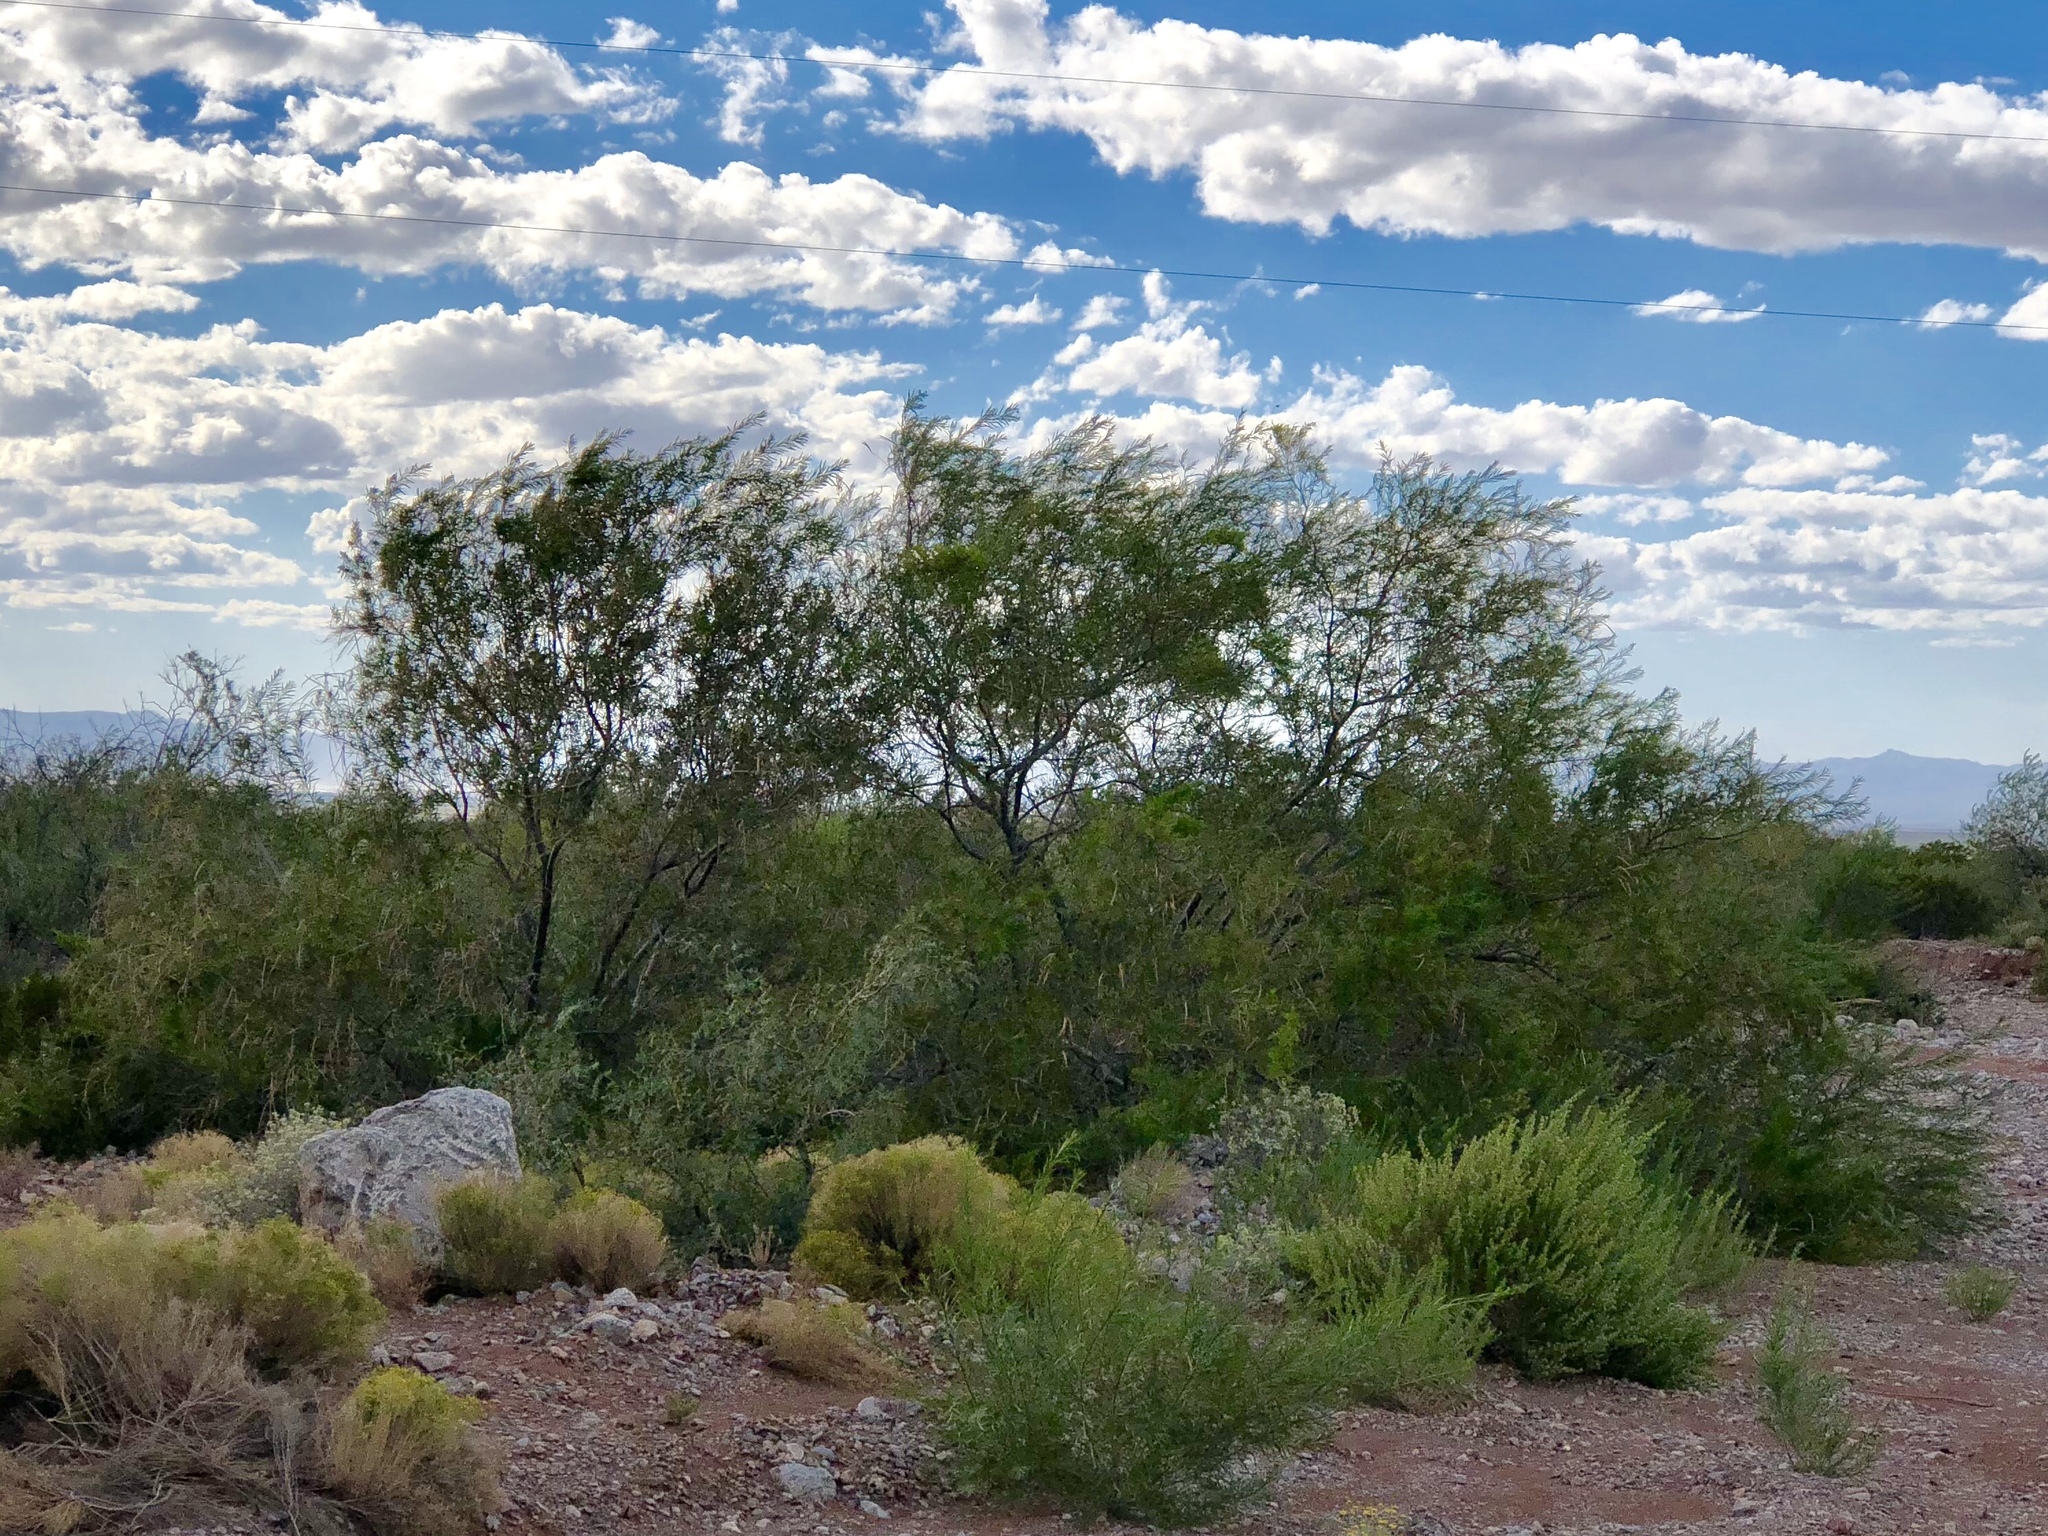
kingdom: Plantae
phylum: Tracheophyta
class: Magnoliopsida
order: Fabales
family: Fabaceae
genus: Prosopis
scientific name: Prosopis glandulosa
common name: Honey mesquite
